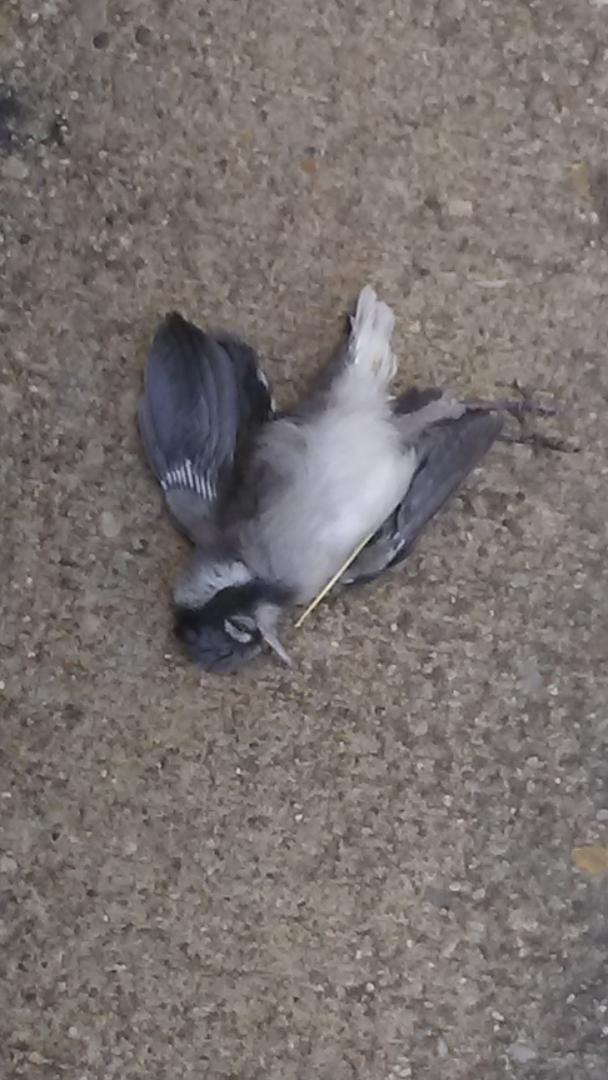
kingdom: Animalia
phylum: Chordata
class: Aves
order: Passeriformes
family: Corvidae
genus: Cyanocitta
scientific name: Cyanocitta cristata
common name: Blue jay
